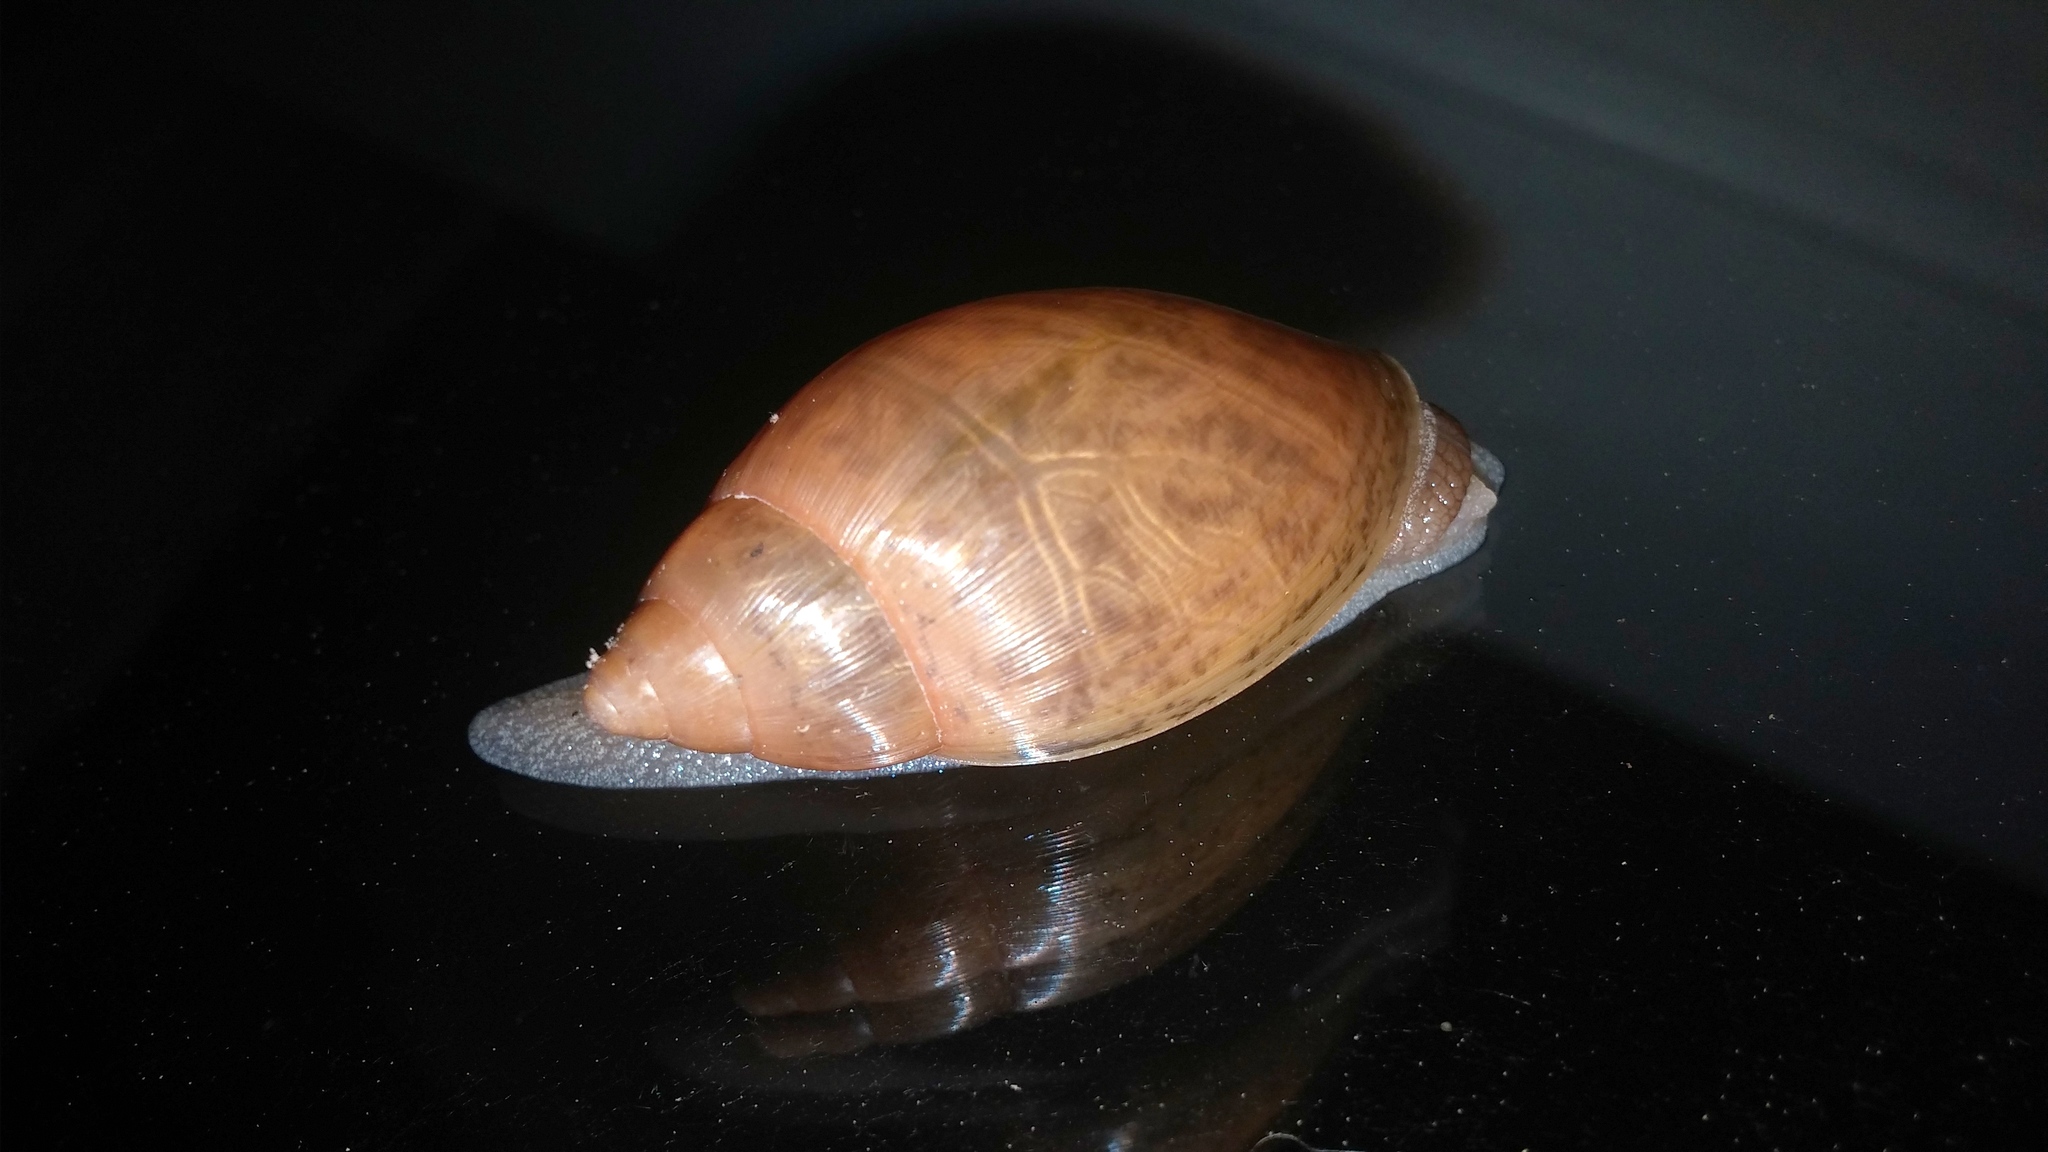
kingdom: Animalia
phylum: Mollusca
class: Gastropoda
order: Stylommatophora
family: Spiraxidae
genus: Euglandina
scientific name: Euglandina rosea
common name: Rosy wolfsnail
